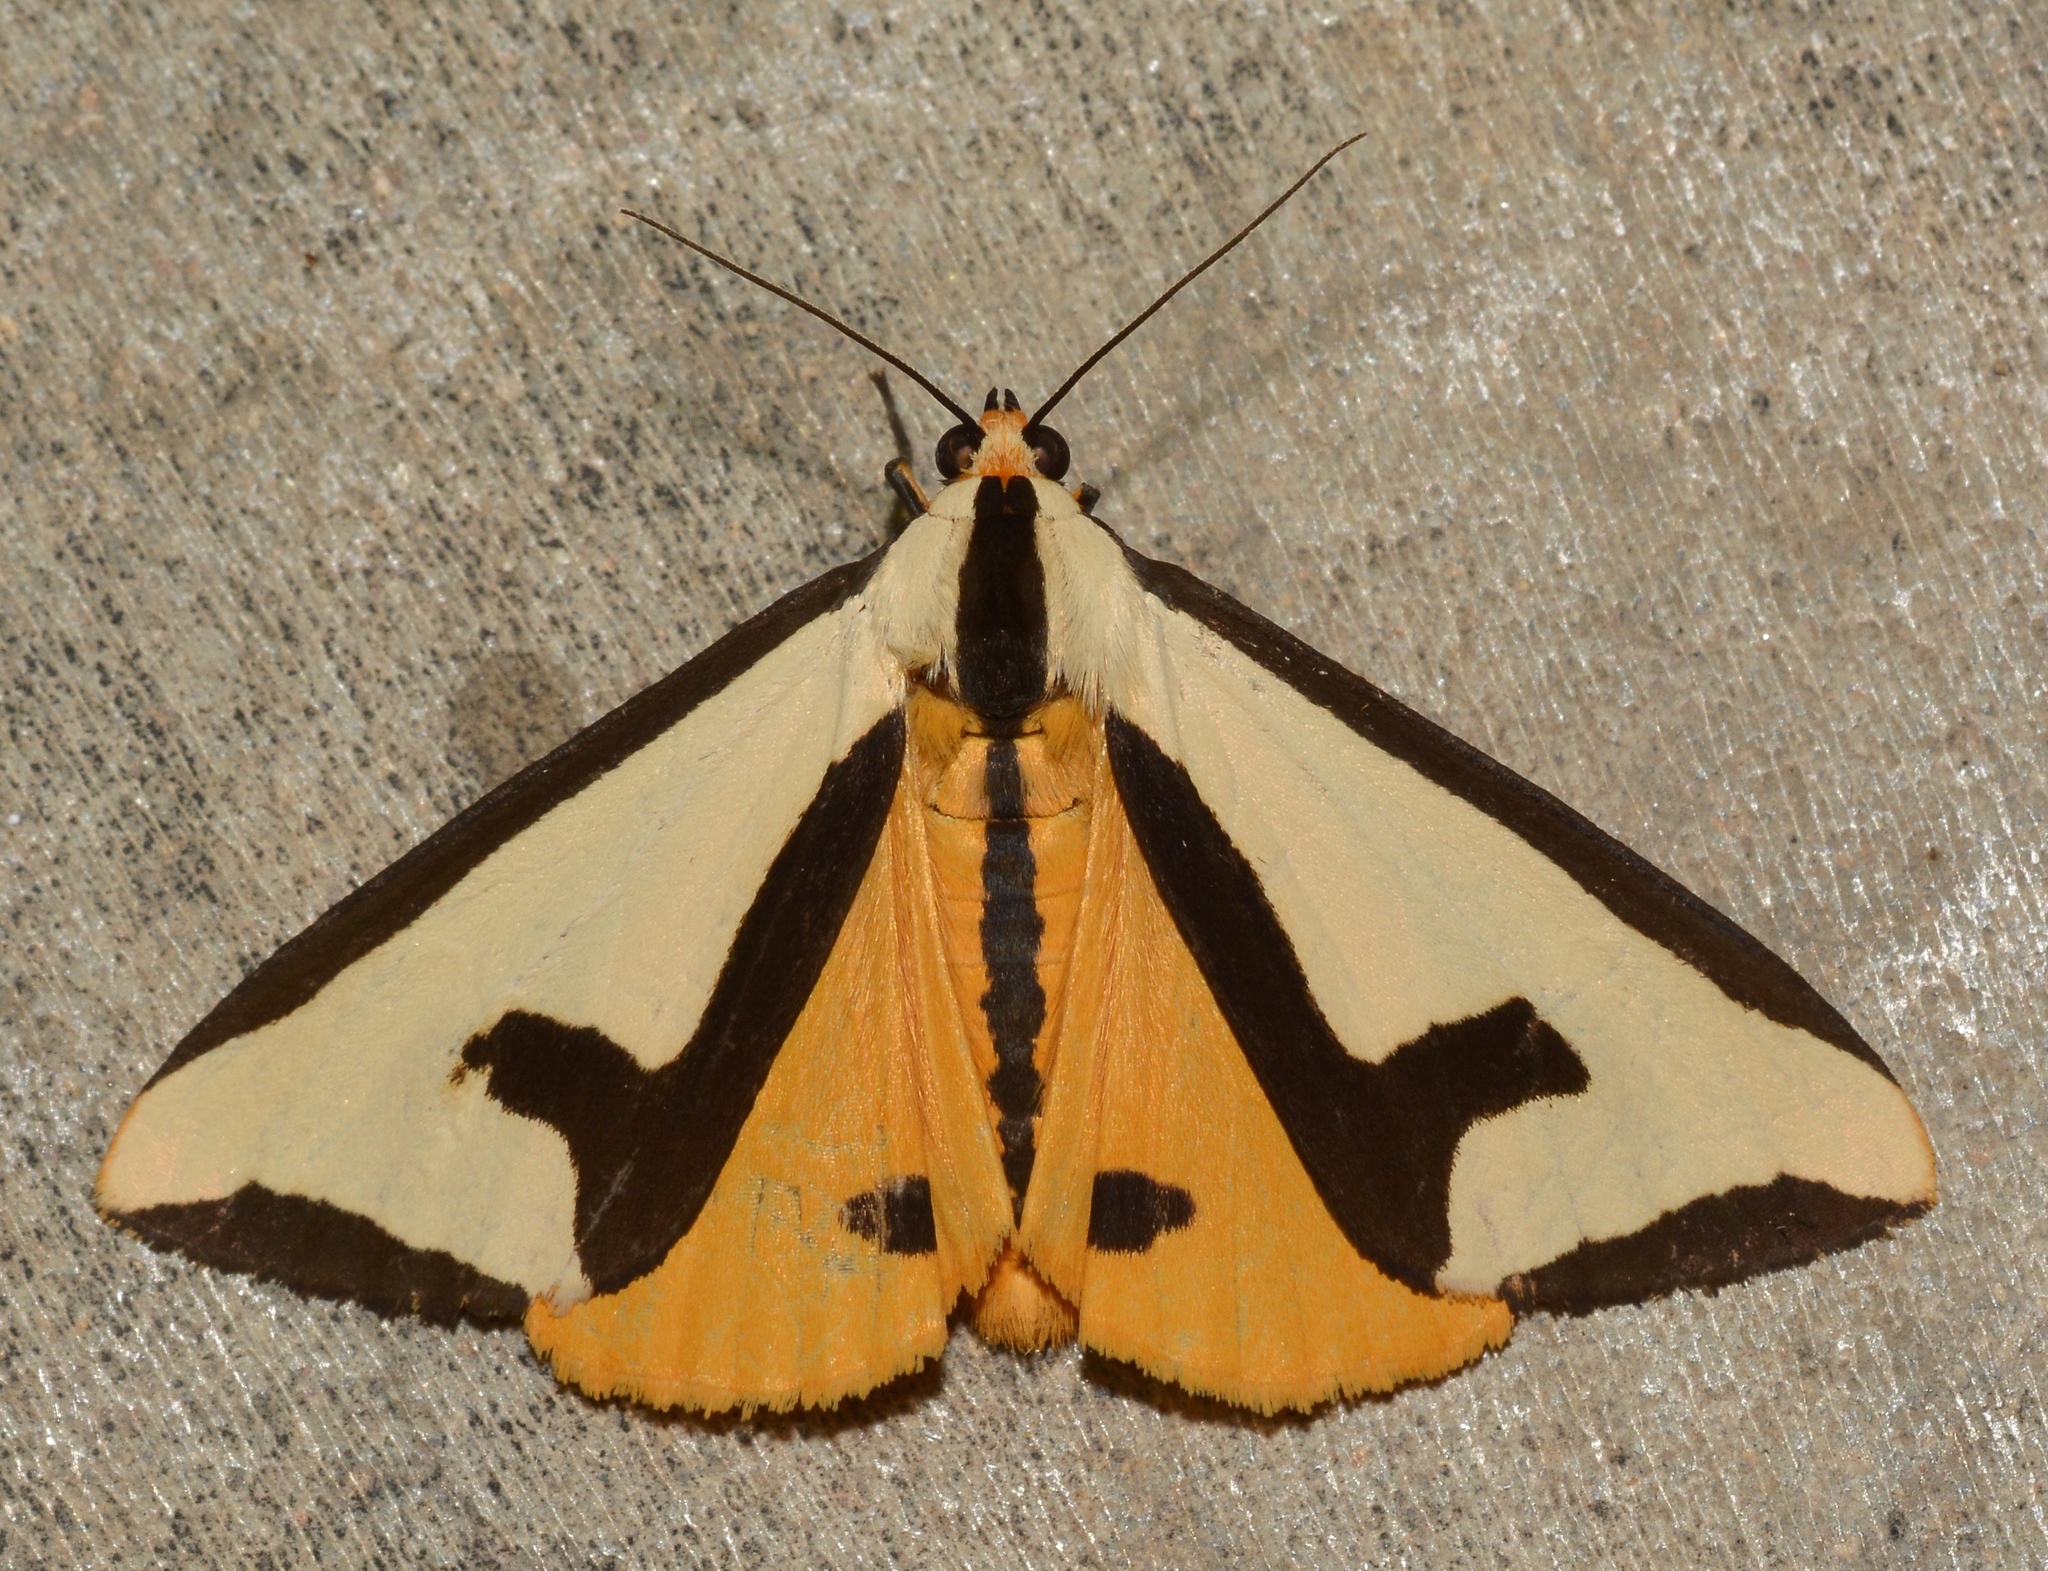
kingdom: Animalia
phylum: Arthropoda
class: Insecta
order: Lepidoptera
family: Erebidae
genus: Haploa
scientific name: Haploa clymene
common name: Clymene moth
